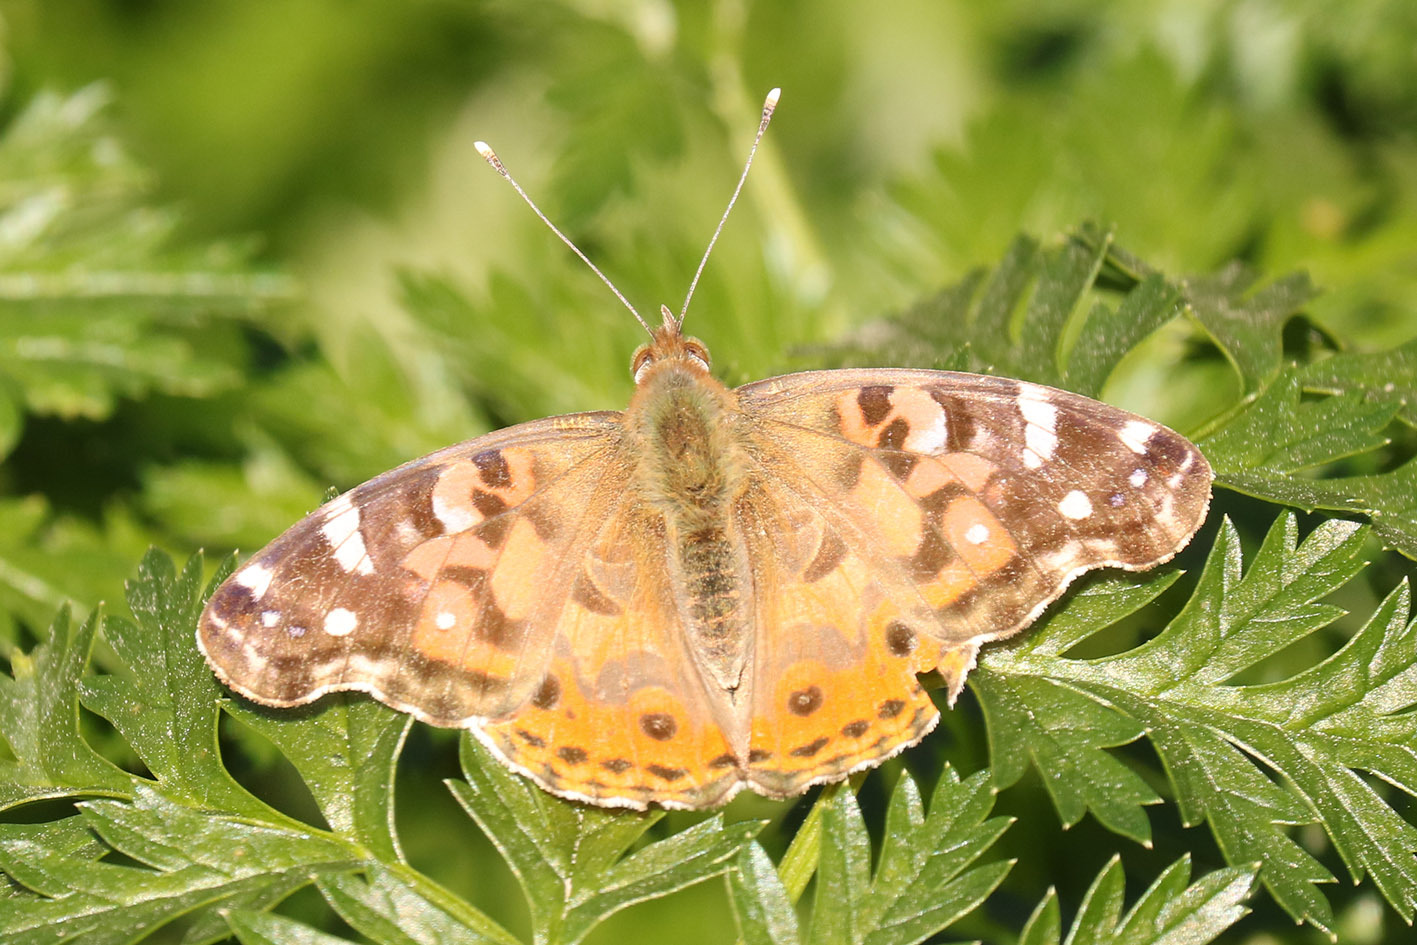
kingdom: Animalia
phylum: Arthropoda
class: Insecta
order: Lepidoptera
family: Nymphalidae
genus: Vanessa
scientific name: Vanessa braziliensis
